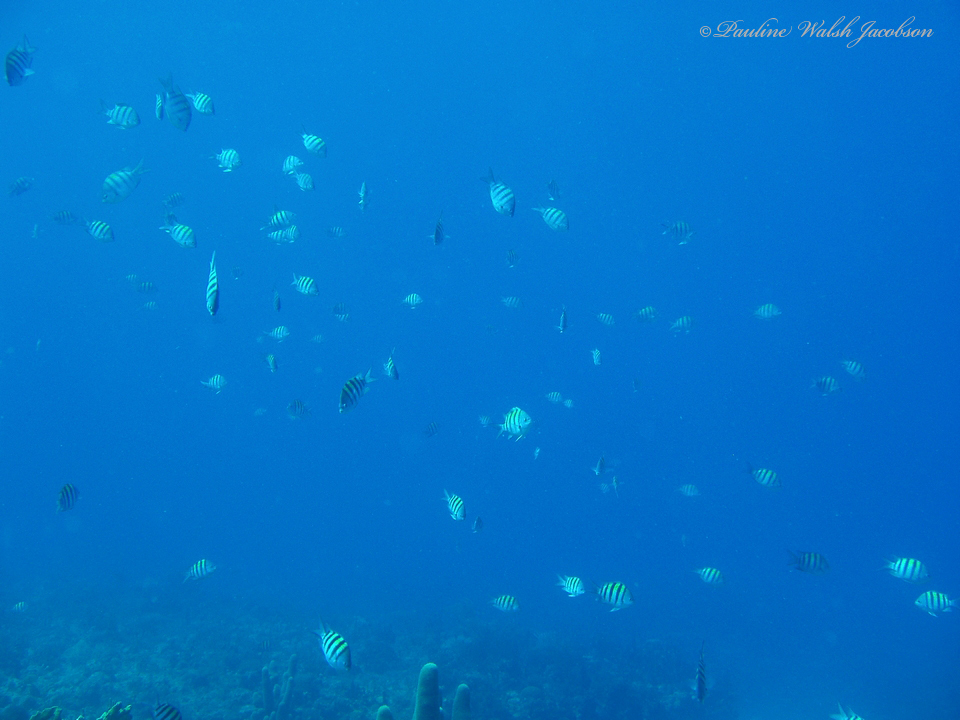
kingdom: Animalia
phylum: Chordata
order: Perciformes
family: Pomacentridae
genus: Abudefduf
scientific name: Abudefduf saxatilis
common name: Sergeant major
